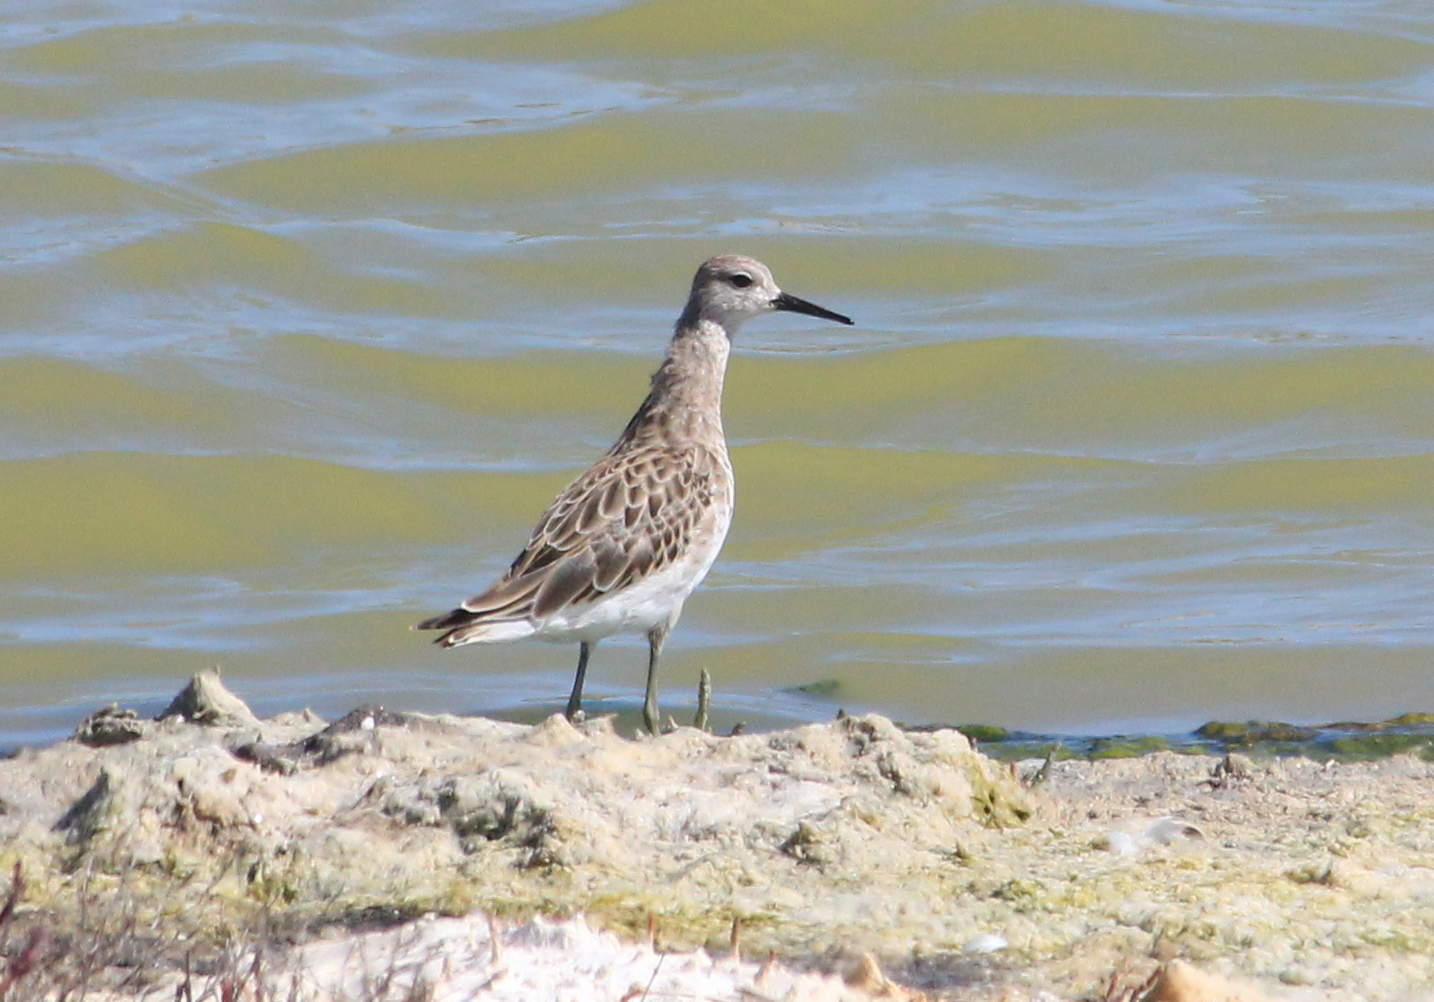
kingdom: Animalia
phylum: Chordata
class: Aves
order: Charadriiformes
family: Scolopacidae
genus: Calidris
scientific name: Calidris pugnax
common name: Ruff
